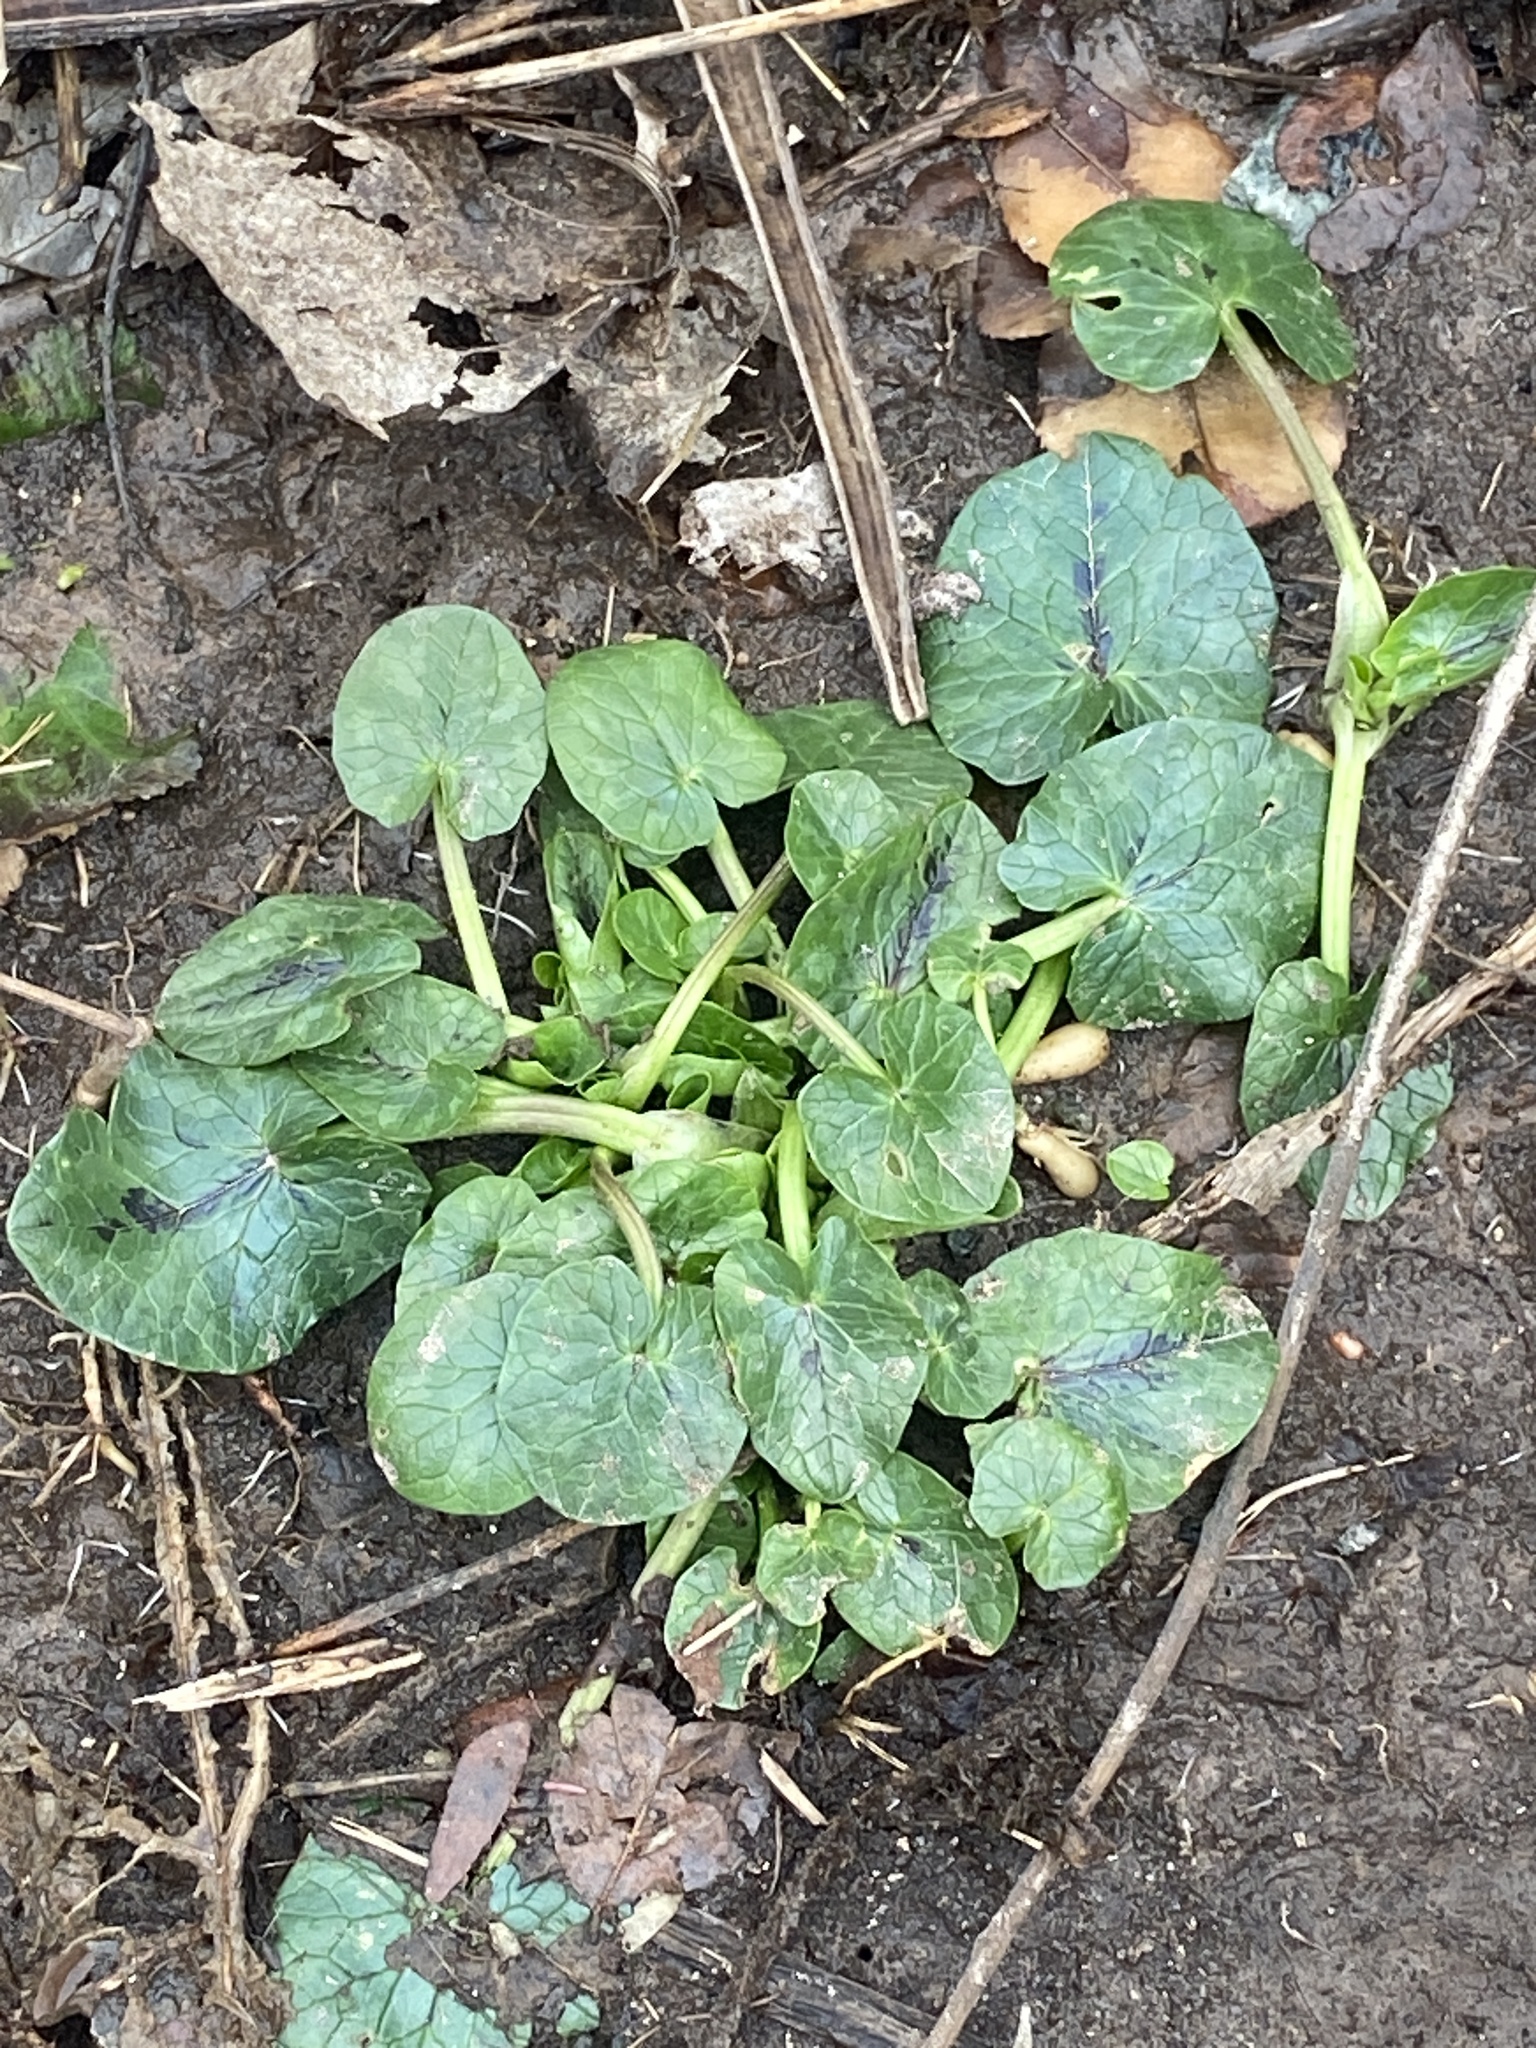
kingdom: Plantae
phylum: Tracheophyta
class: Magnoliopsida
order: Ranunculales
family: Ranunculaceae
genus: Ficaria
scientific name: Ficaria verna
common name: Lesser celandine
